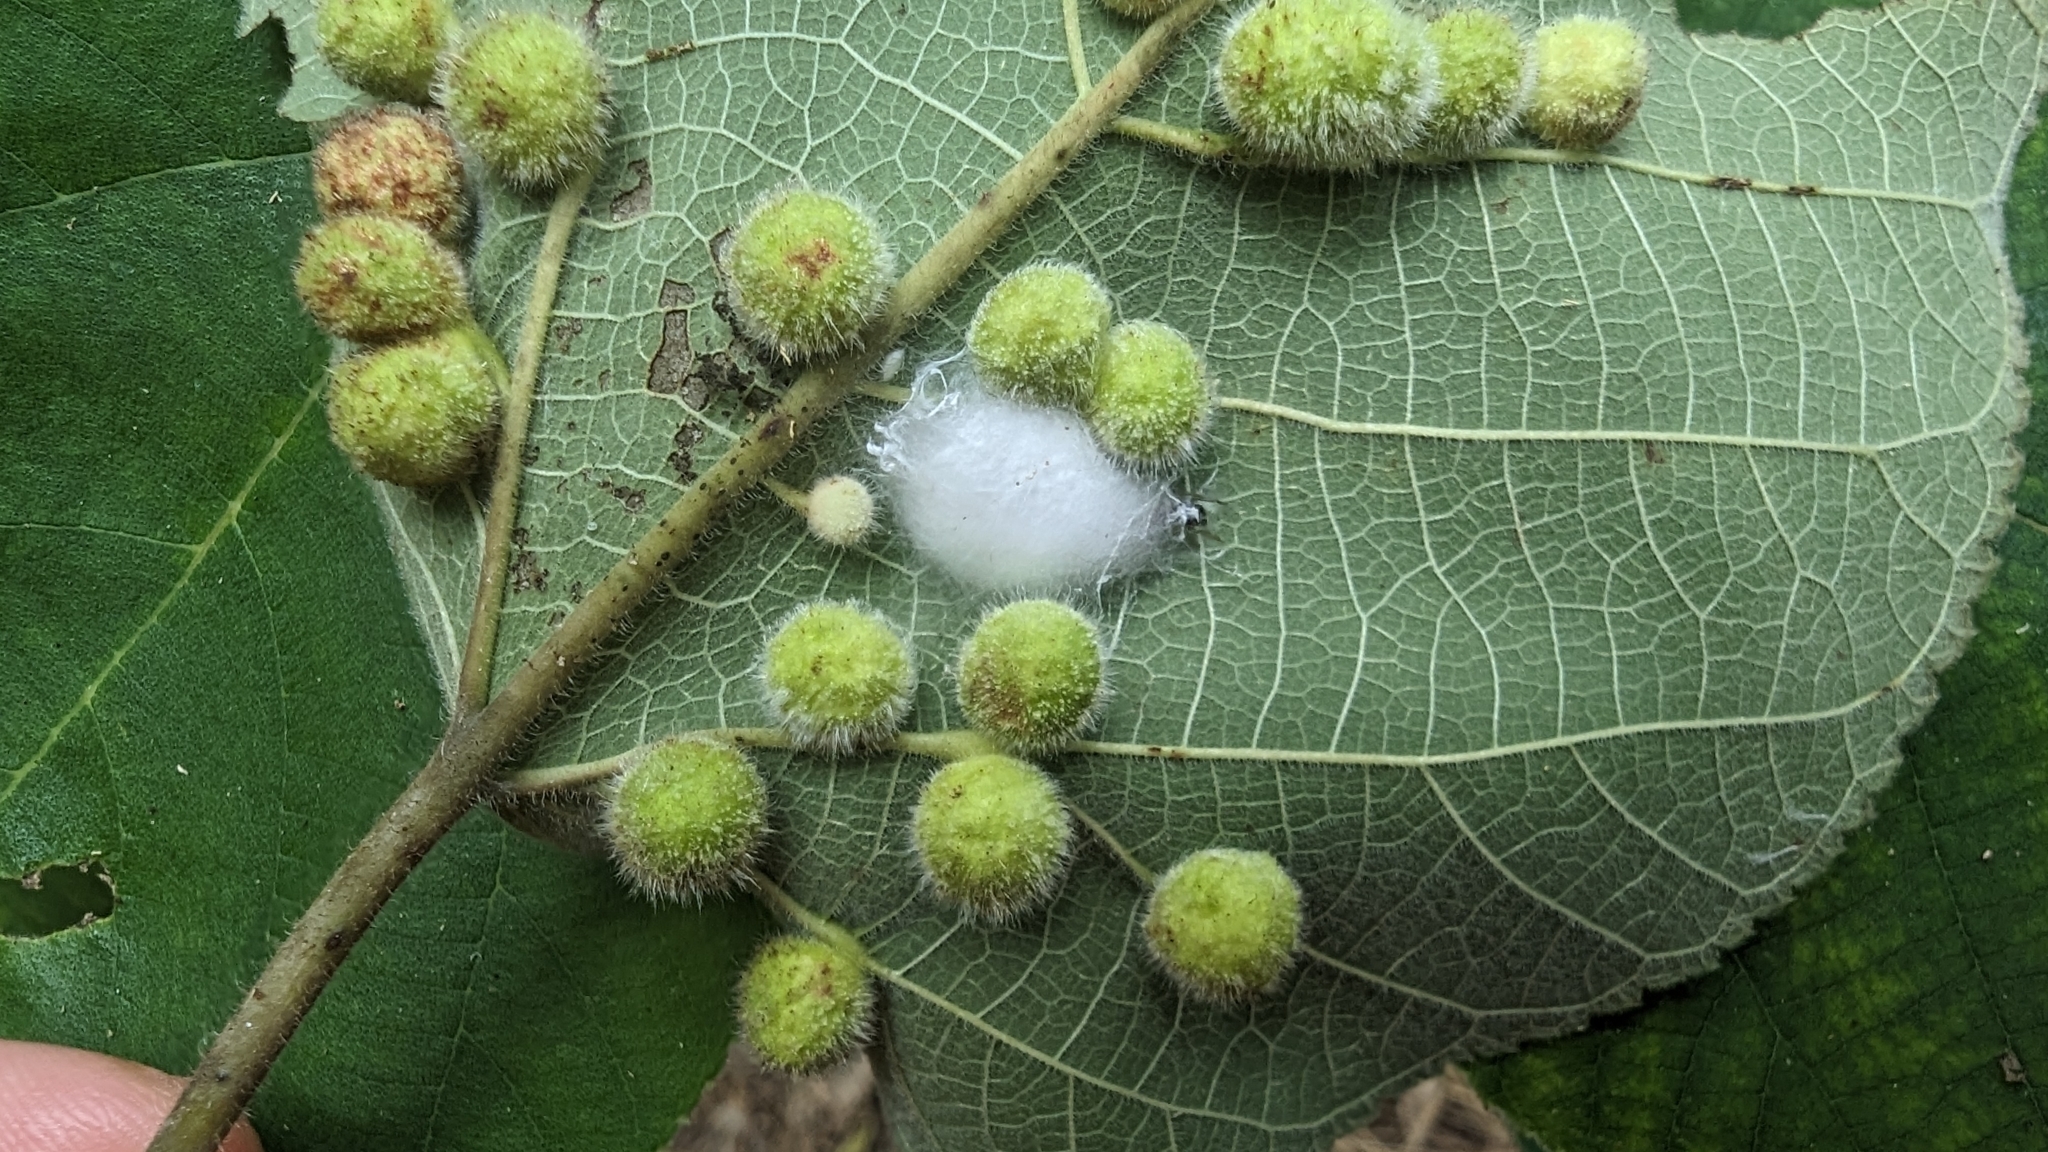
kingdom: Plantae
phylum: Tracheophyta
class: Magnoliopsida
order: Rosales
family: Moraceae
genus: Broussonetia
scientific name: Broussonetia papyrifera
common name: Paper mulberry
